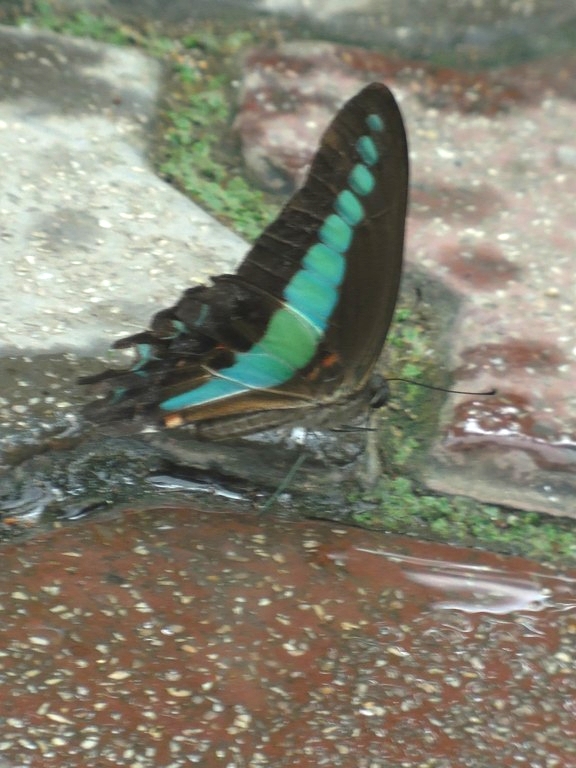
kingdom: Fungi
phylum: Ascomycota
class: Sordariomycetes
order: Microascales
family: Microascaceae
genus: Graphium
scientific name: Graphium sarpedon
